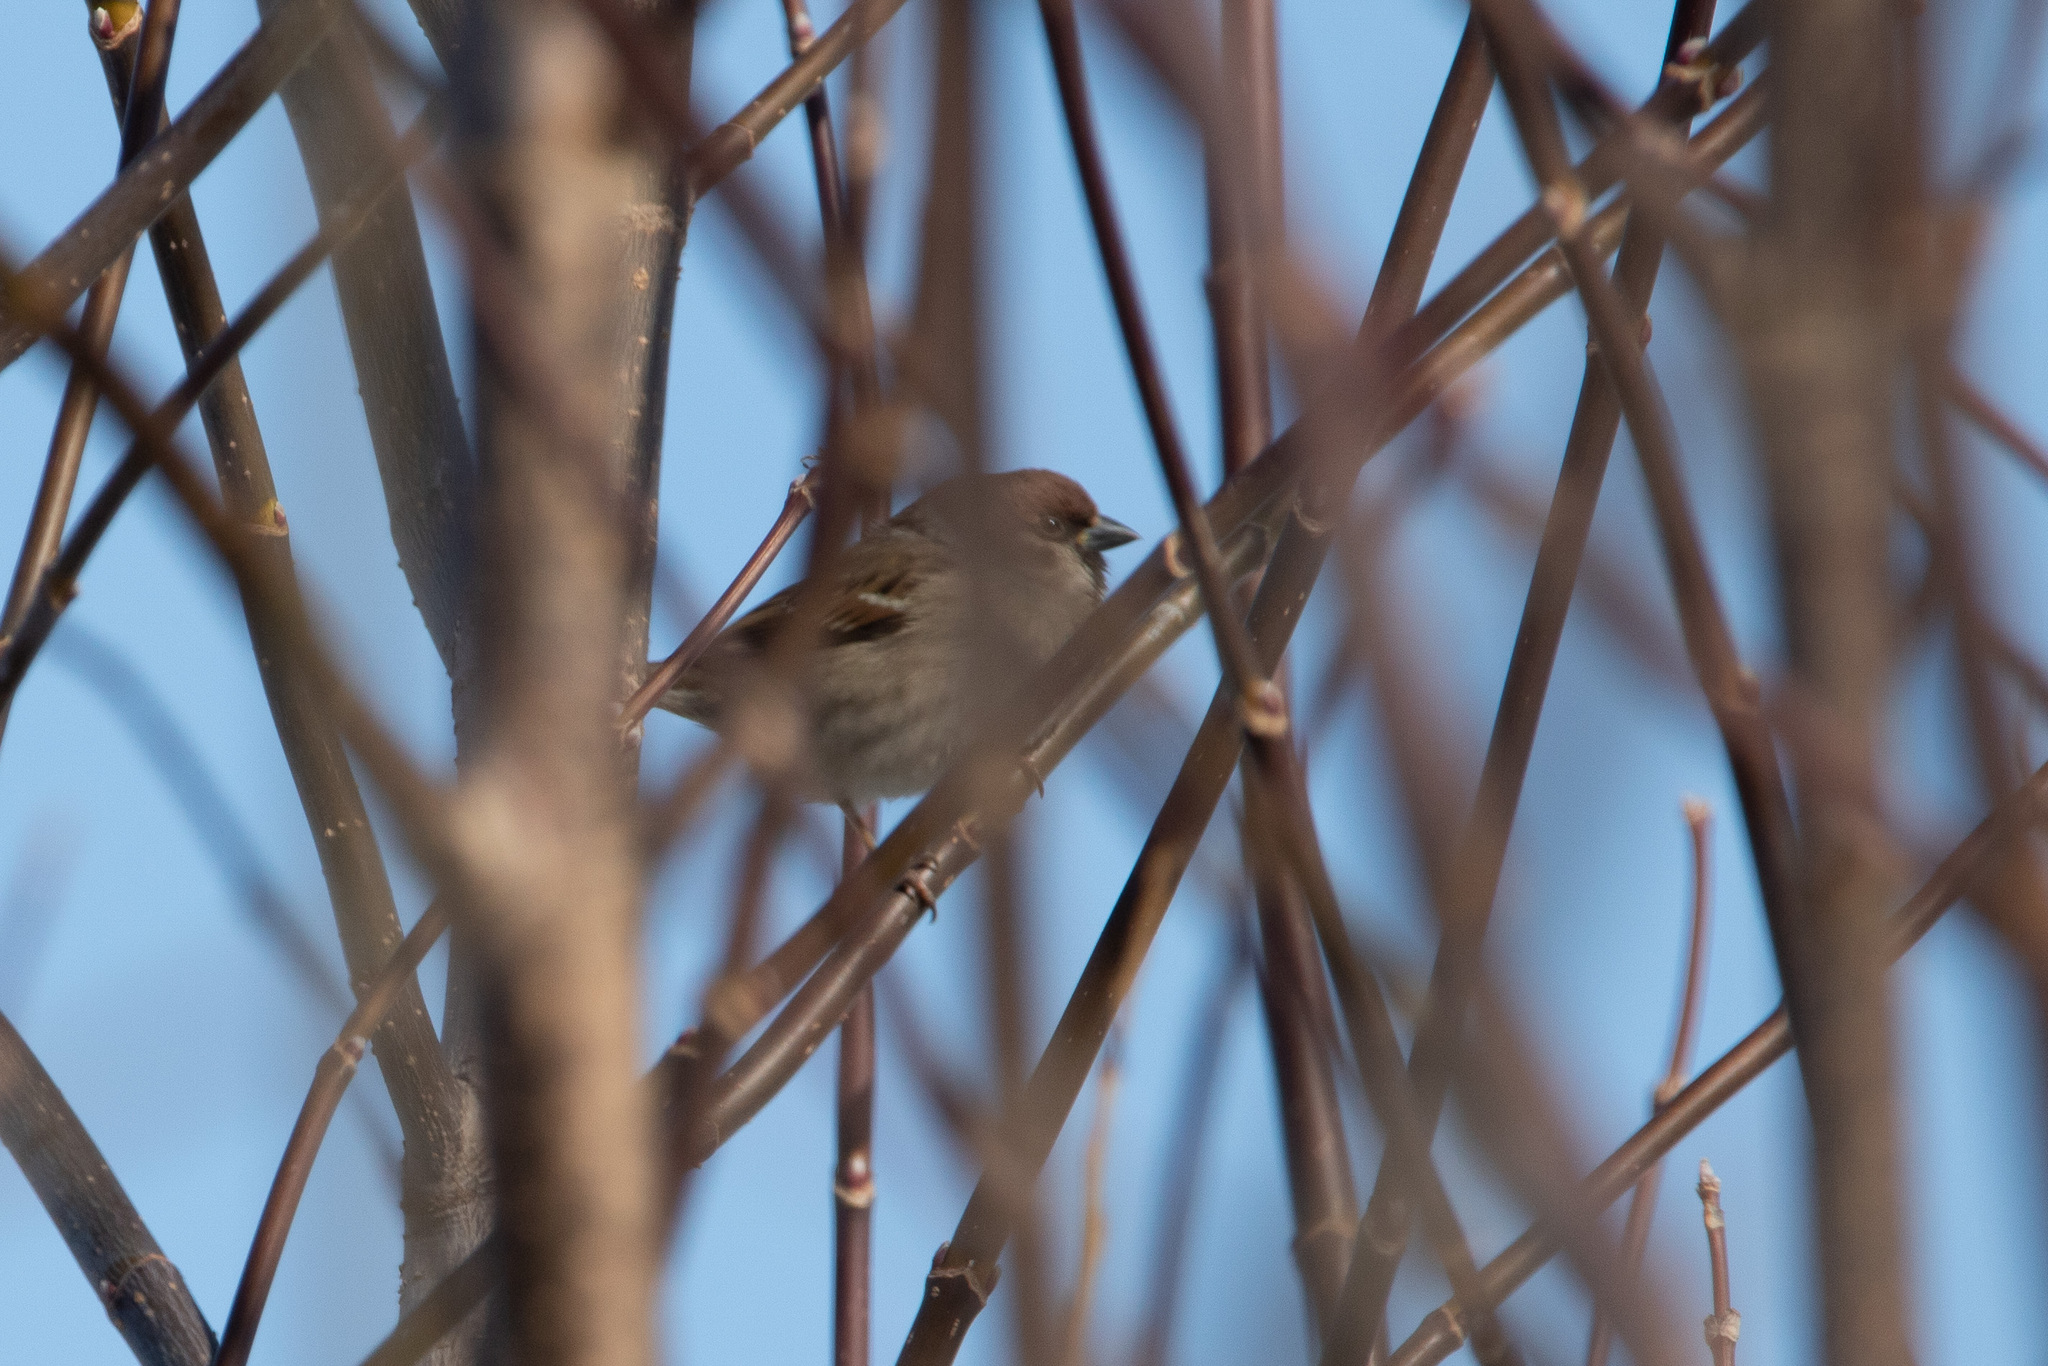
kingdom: Animalia
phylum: Chordata
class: Aves
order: Passeriformes
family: Passeridae
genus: Passer
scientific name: Passer montanus
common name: Eurasian tree sparrow
